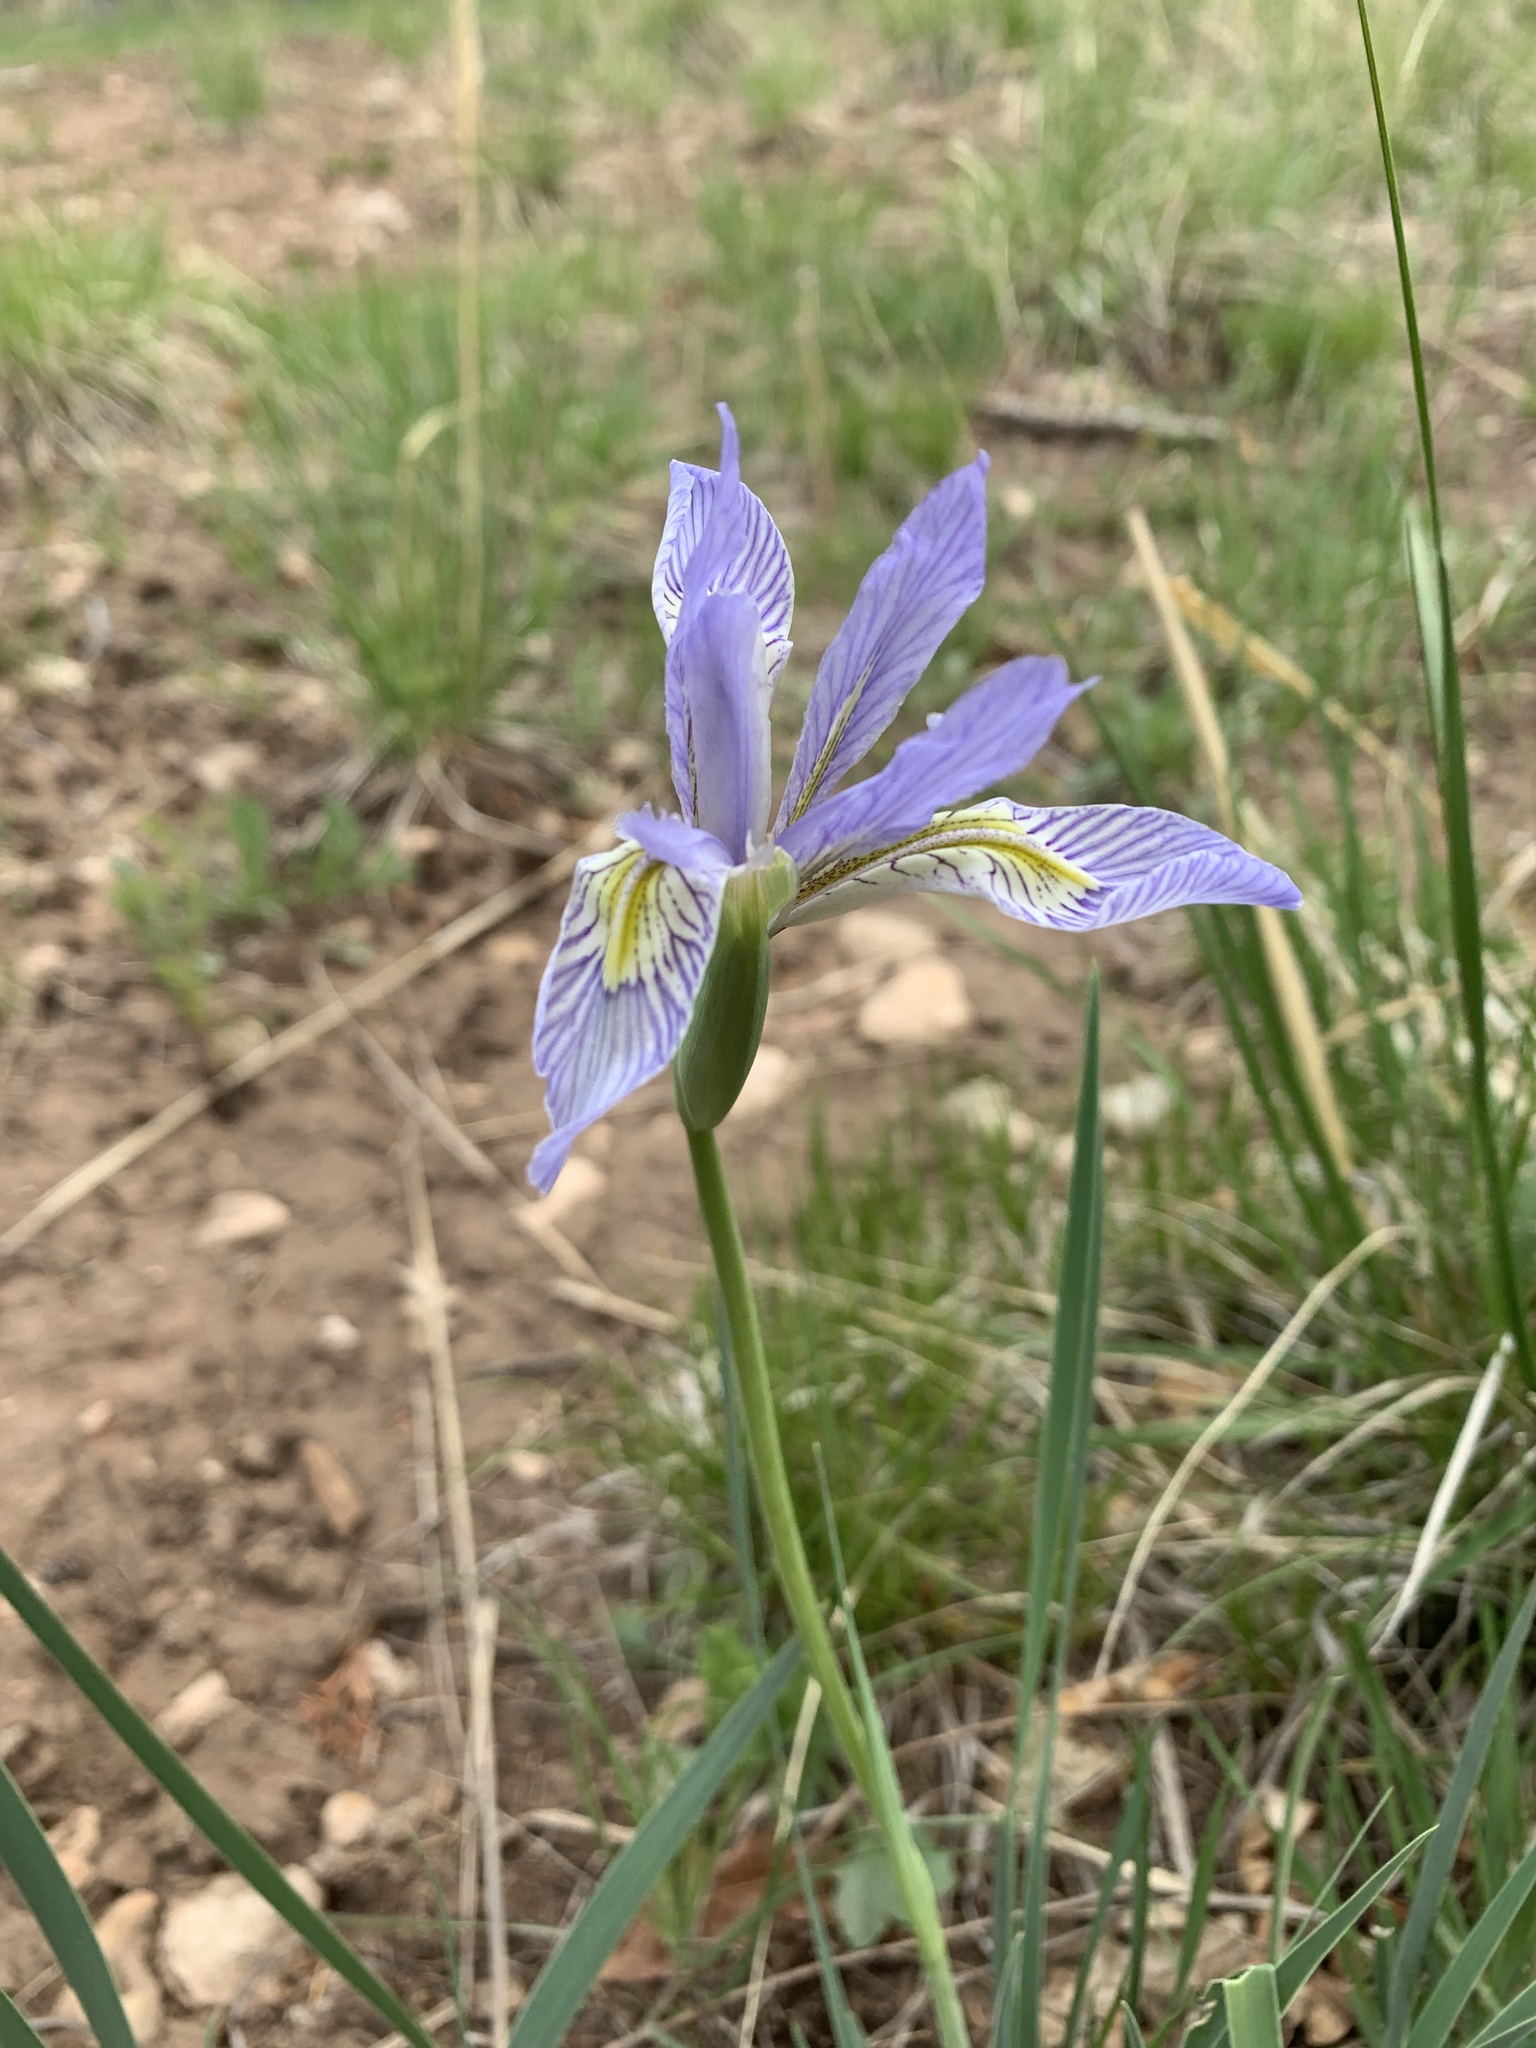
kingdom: Plantae
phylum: Tracheophyta
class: Liliopsida
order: Asparagales
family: Iridaceae
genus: Iris
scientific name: Iris missouriensis
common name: Rocky mountain iris
